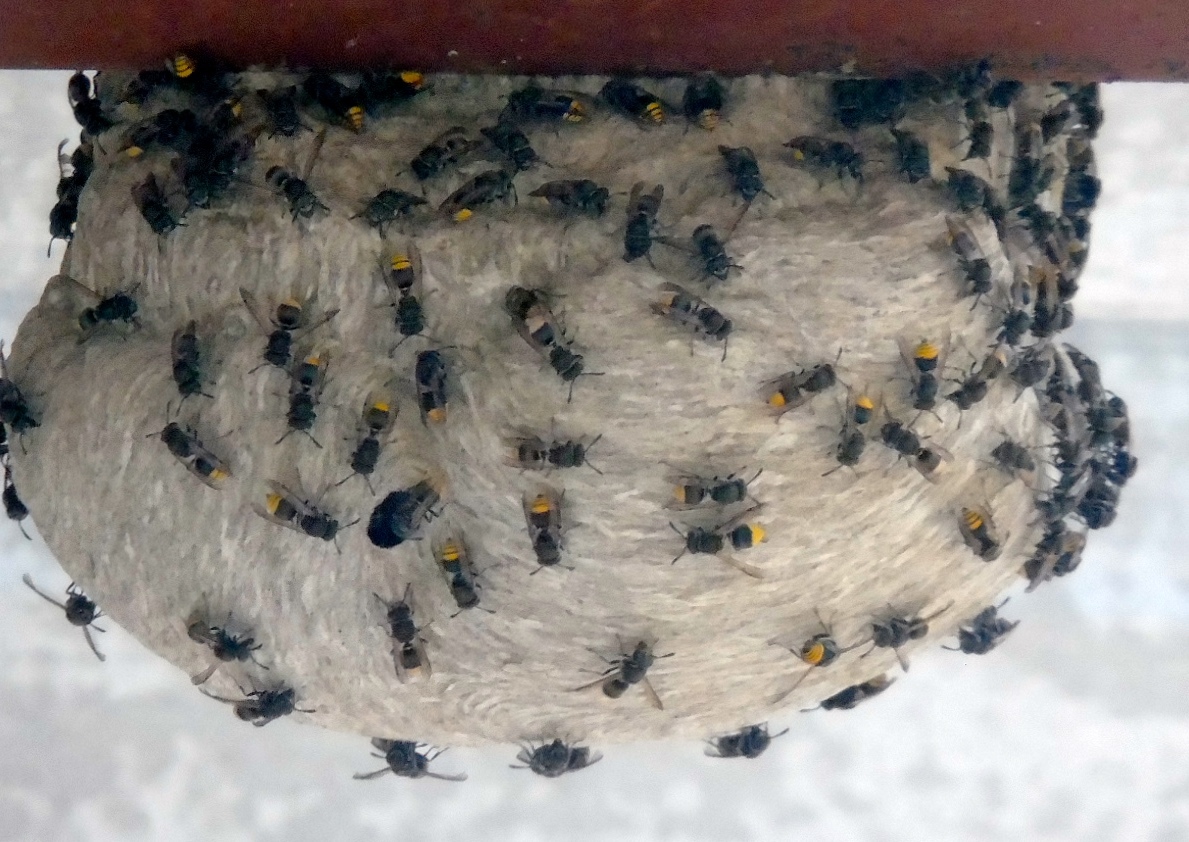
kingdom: Animalia
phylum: Arthropoda
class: Insecta
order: Hymenoptera
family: Vespidae
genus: Brachygastra
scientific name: Brachygastra azteca
